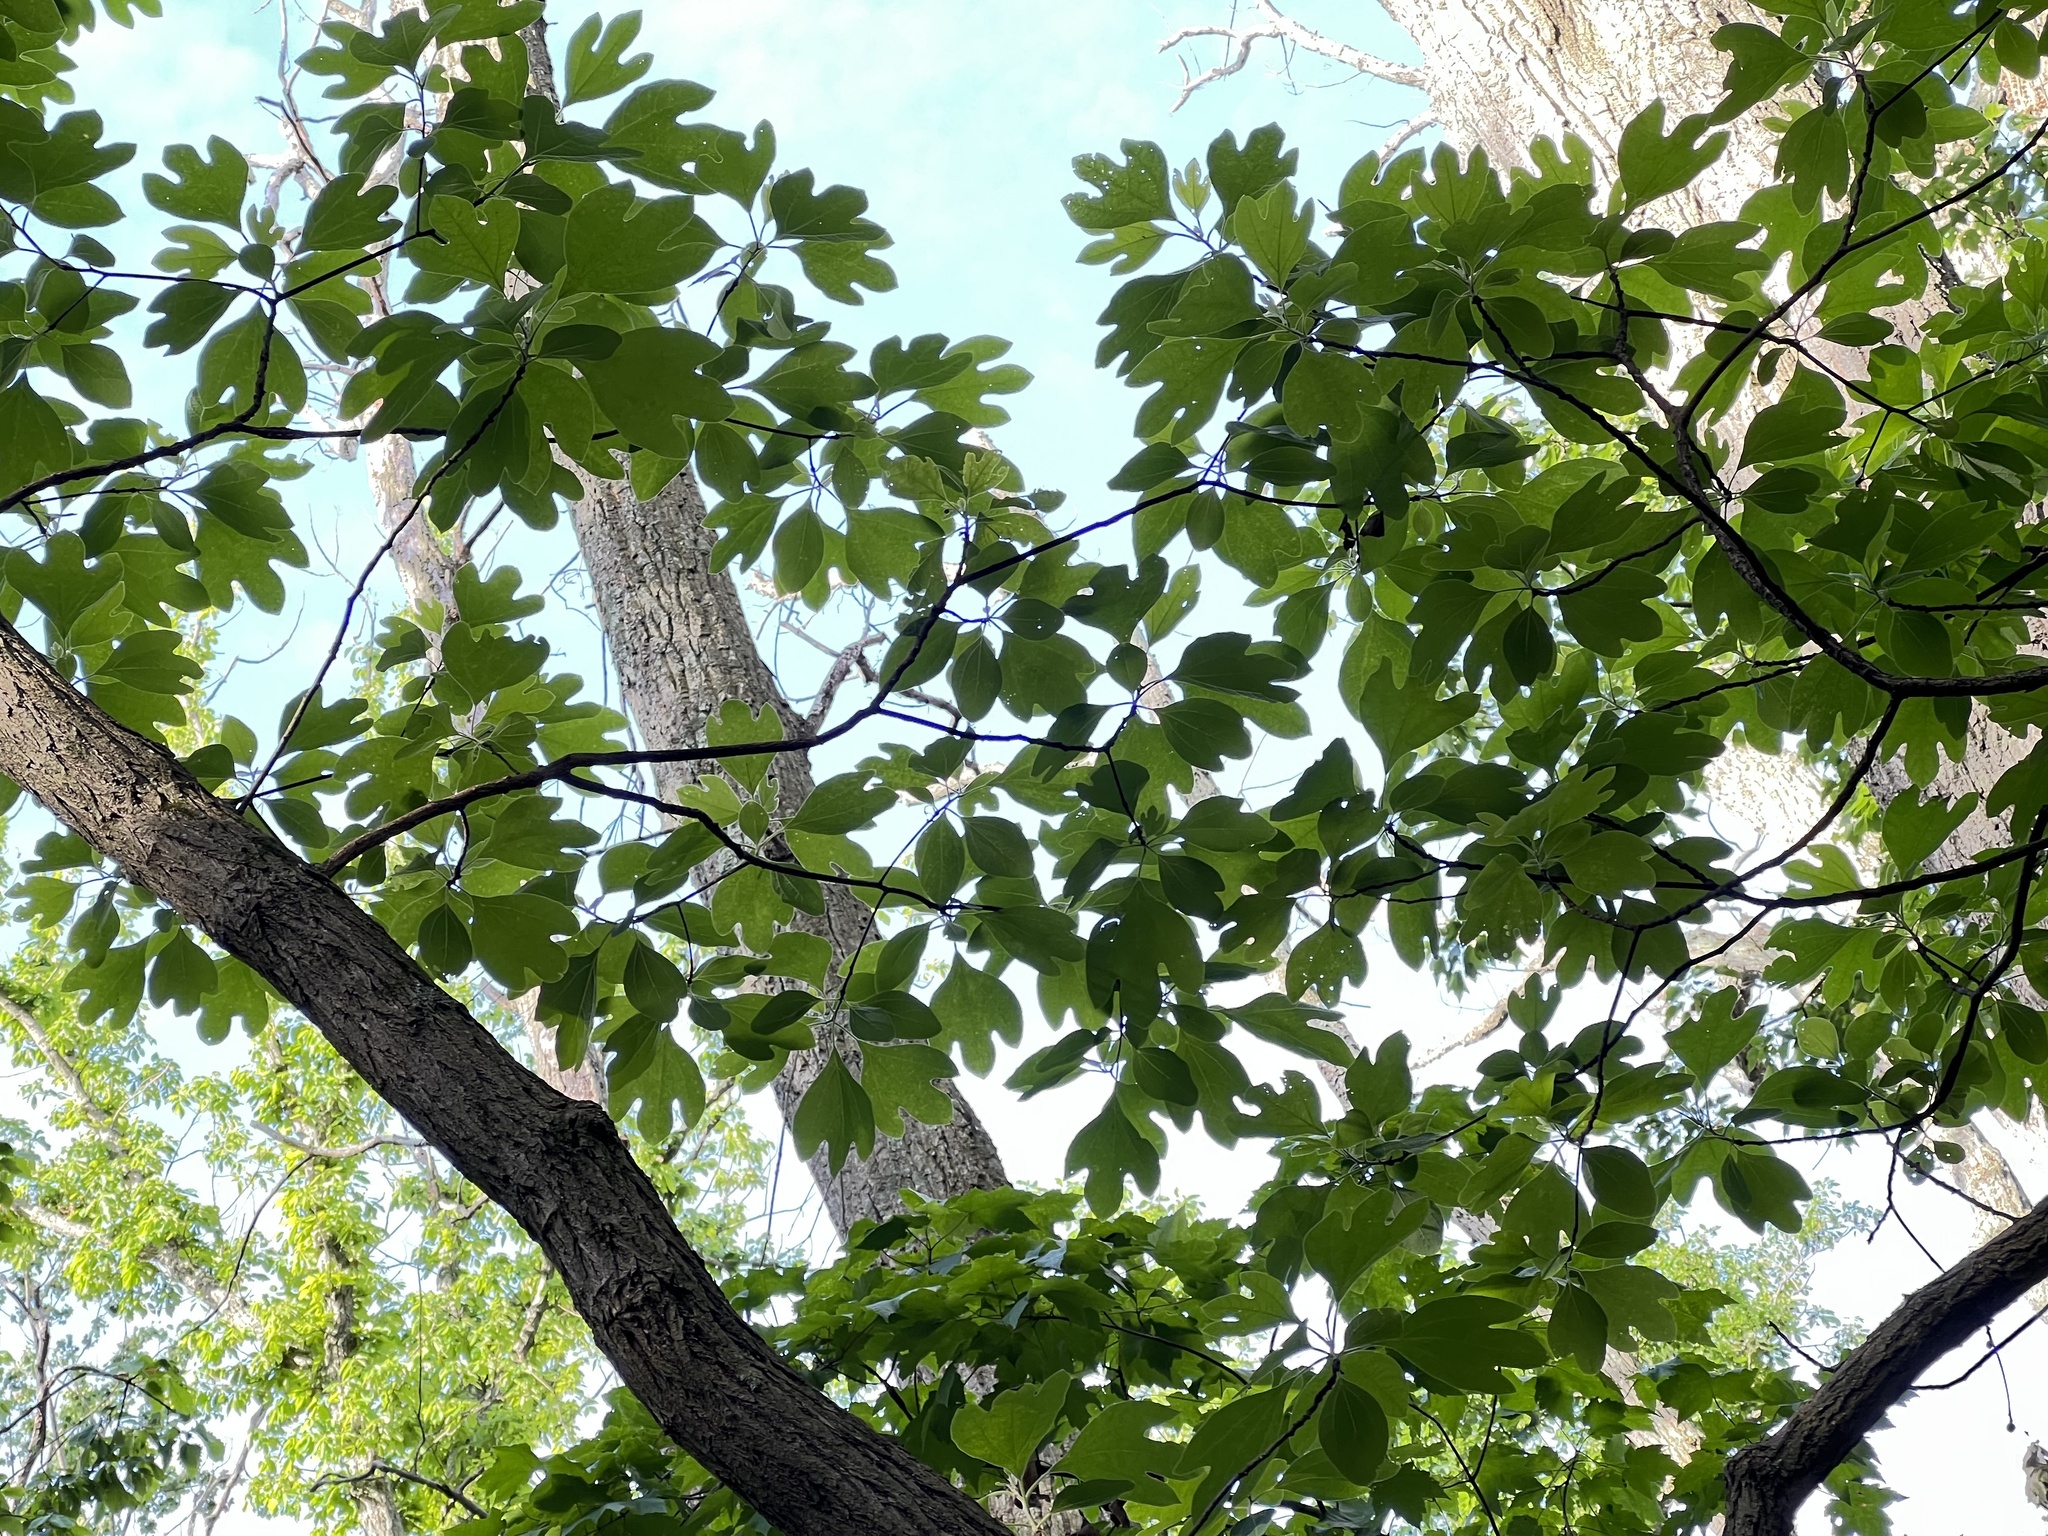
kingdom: Plantae
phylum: Tracheophyta
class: Magnoliopsida
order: Laurales
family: Lauraceae
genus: Sassafras
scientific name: Sassafras albidum
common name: Sassafras
